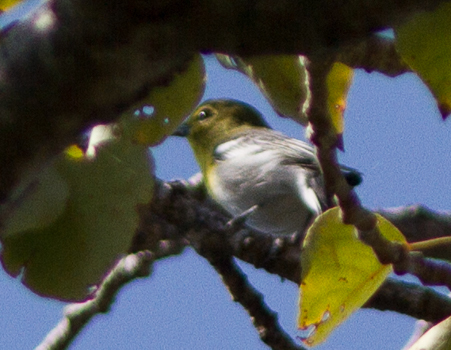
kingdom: Animalia
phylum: Chordata
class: Aves
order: Passeriformes
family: Vireonidae
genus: Vireo
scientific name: Vireo flavifrons
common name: Yellow-throated vireo
